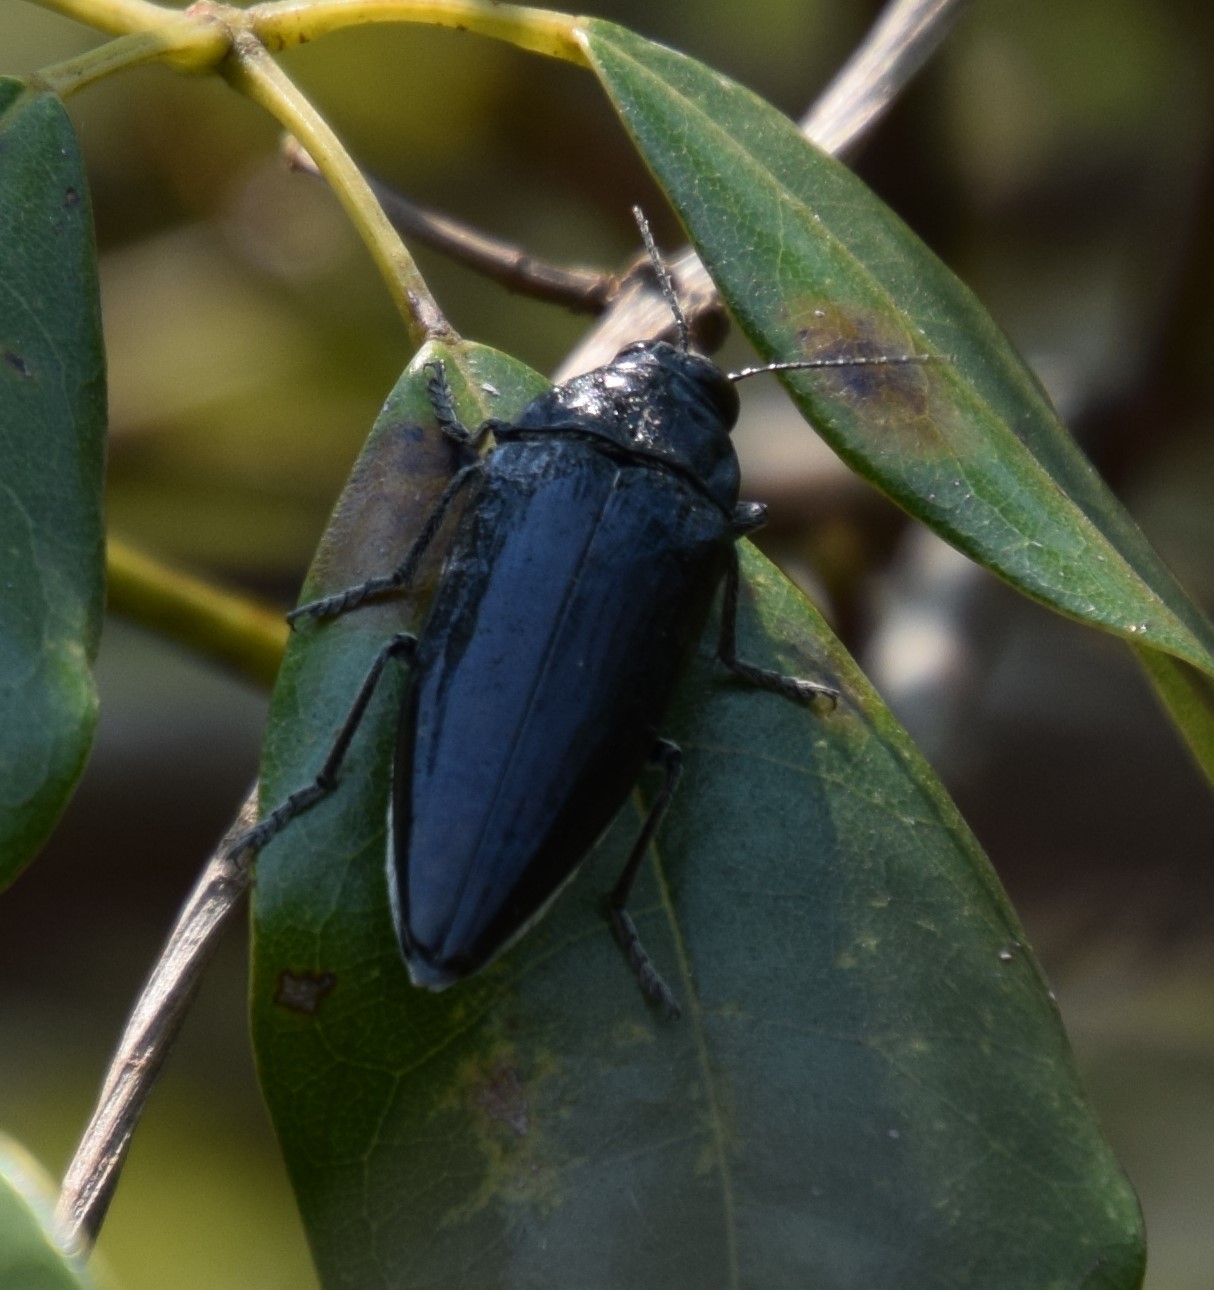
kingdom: Animalia
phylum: Arthropoda
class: Insecta
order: Coleoptera
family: Buprestidae
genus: Cyrioides
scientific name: Cyrioides australis
